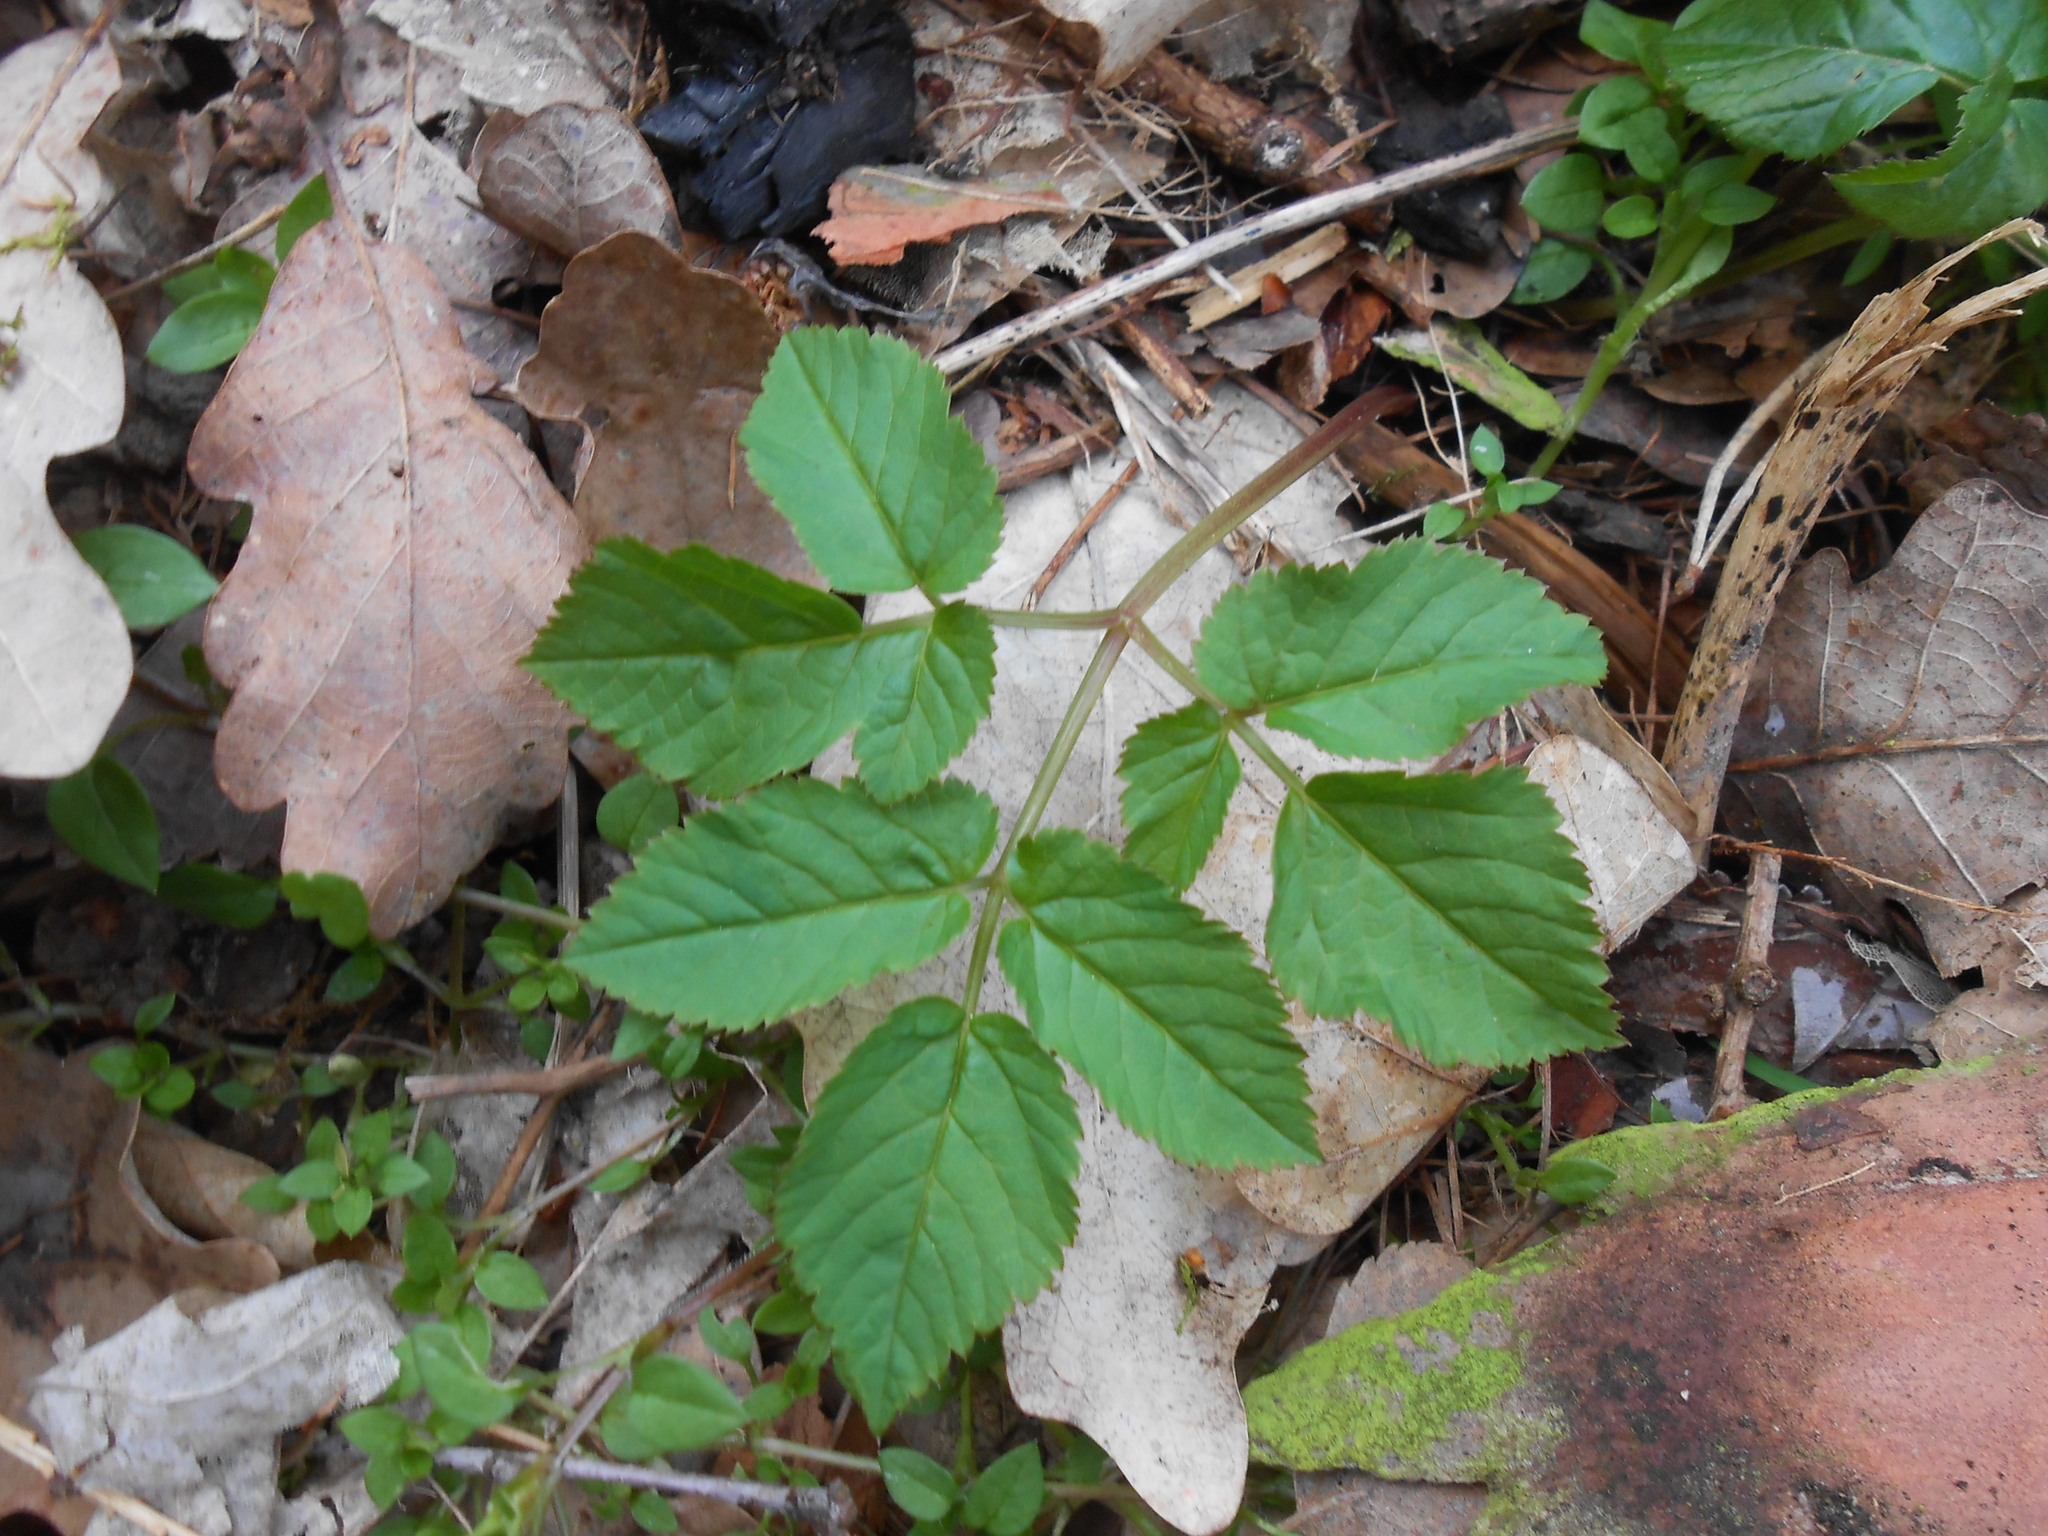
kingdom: Plantae
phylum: Tracheophyta
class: Magnoliopsida
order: Apiales
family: Apiaceae
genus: Aegopodium
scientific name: Aegopodium podagraria
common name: Ground-elder
